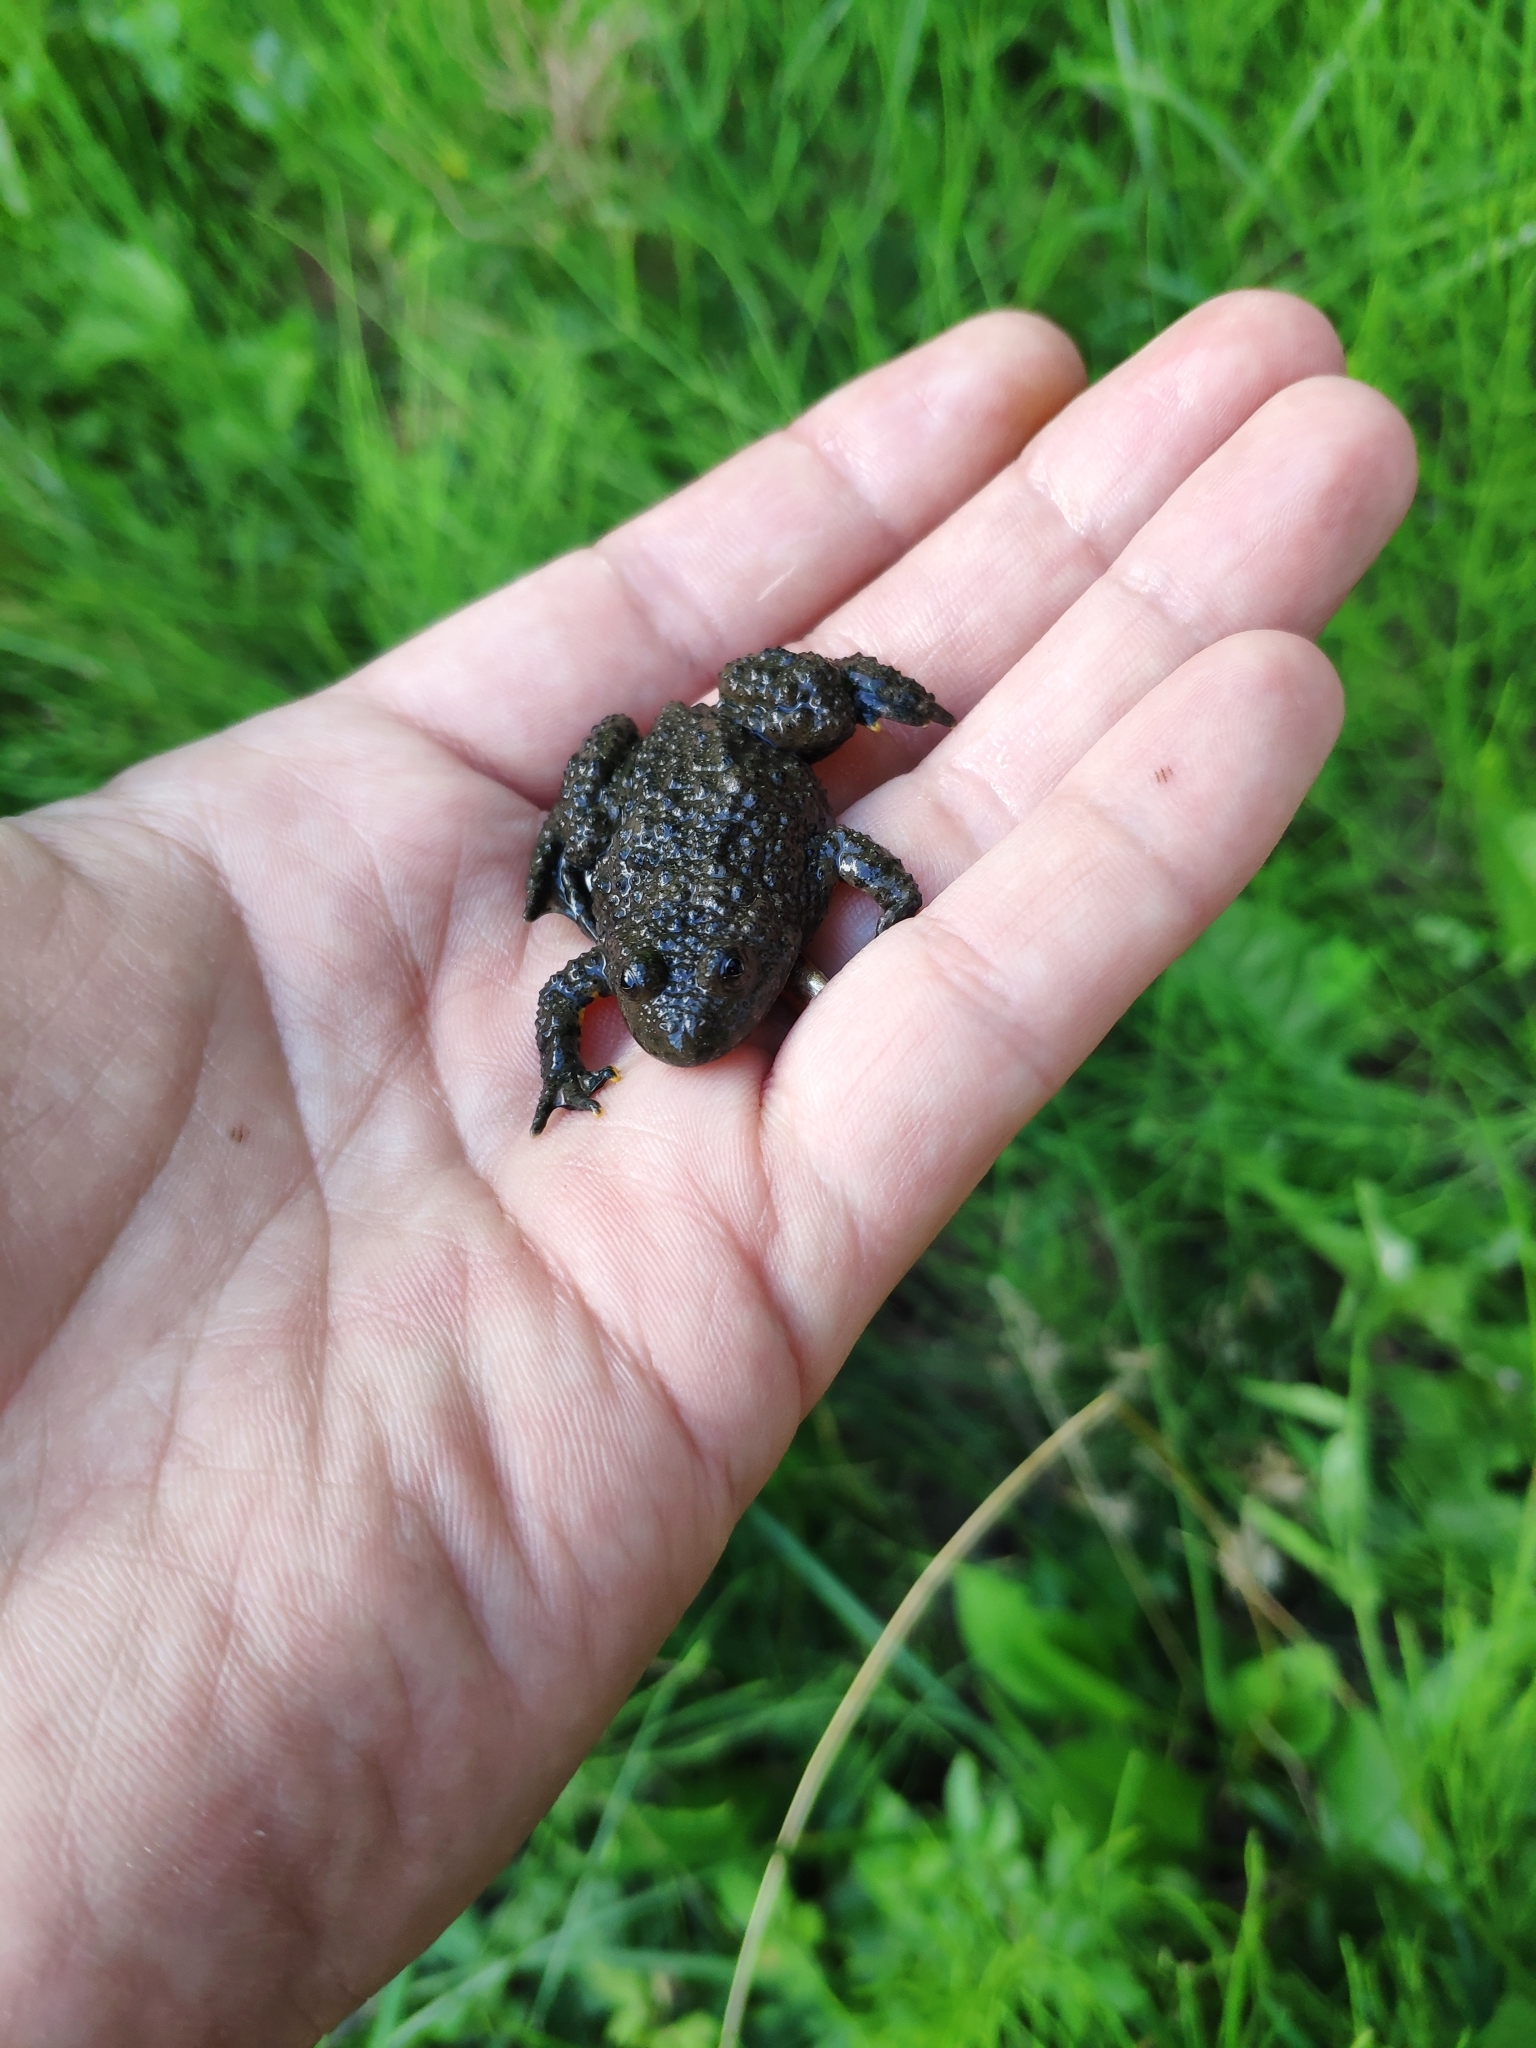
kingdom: Animalia
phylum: Chordata
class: Amphibia
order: Anura
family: Bombinatoridae
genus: Bombina
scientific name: Bombina variegata
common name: Yellow-bellied toad
